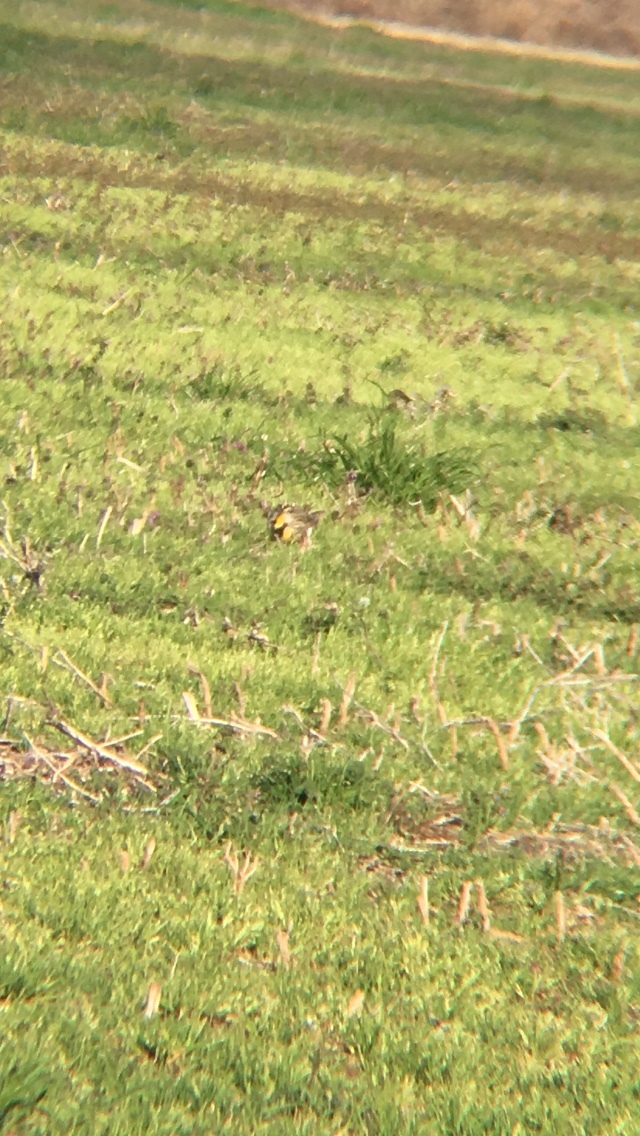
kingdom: Animalia
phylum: Chordata
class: Aves
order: Passeriformes
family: Icteridae
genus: Sturnella
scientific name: Sturnella magna
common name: Eastern meadowlark
